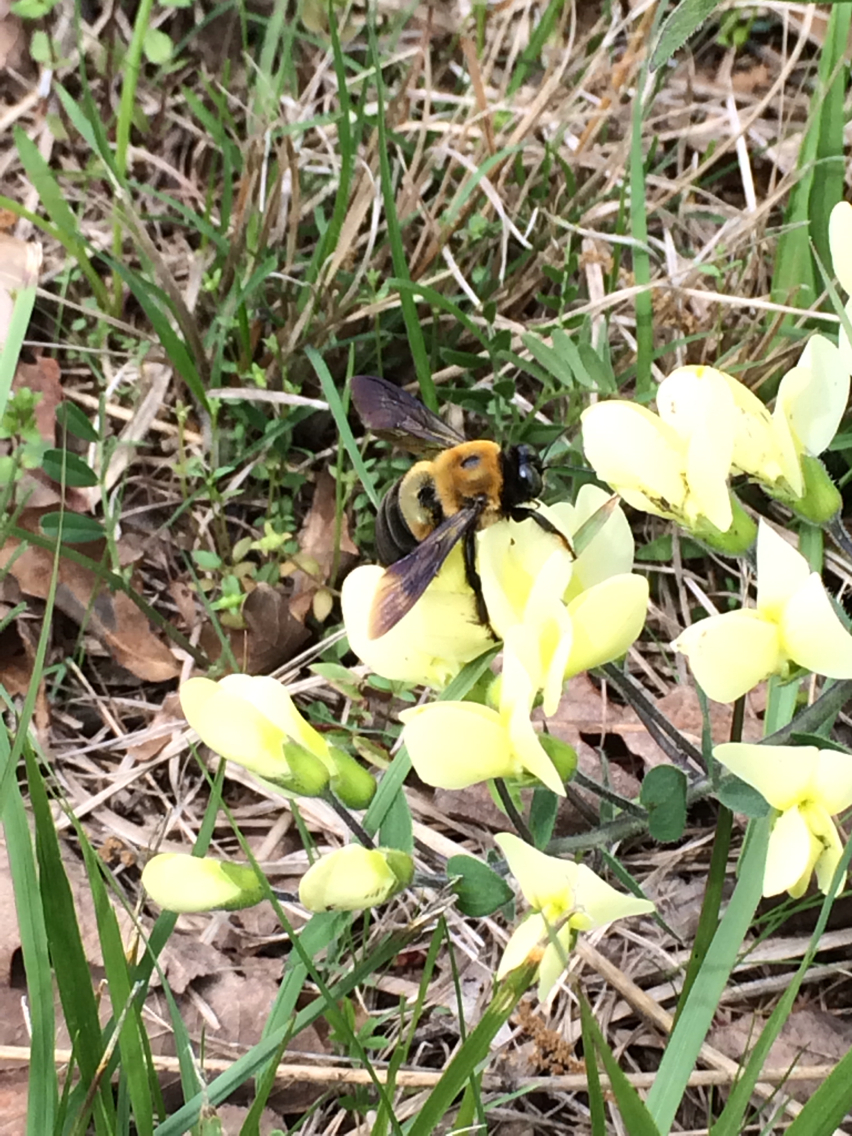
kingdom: Animalia
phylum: Arthropoda
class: Insecta
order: Hymenoptera
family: Apidae
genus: Xylocopa
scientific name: Xylocopa virginica
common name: Carpenter bee
